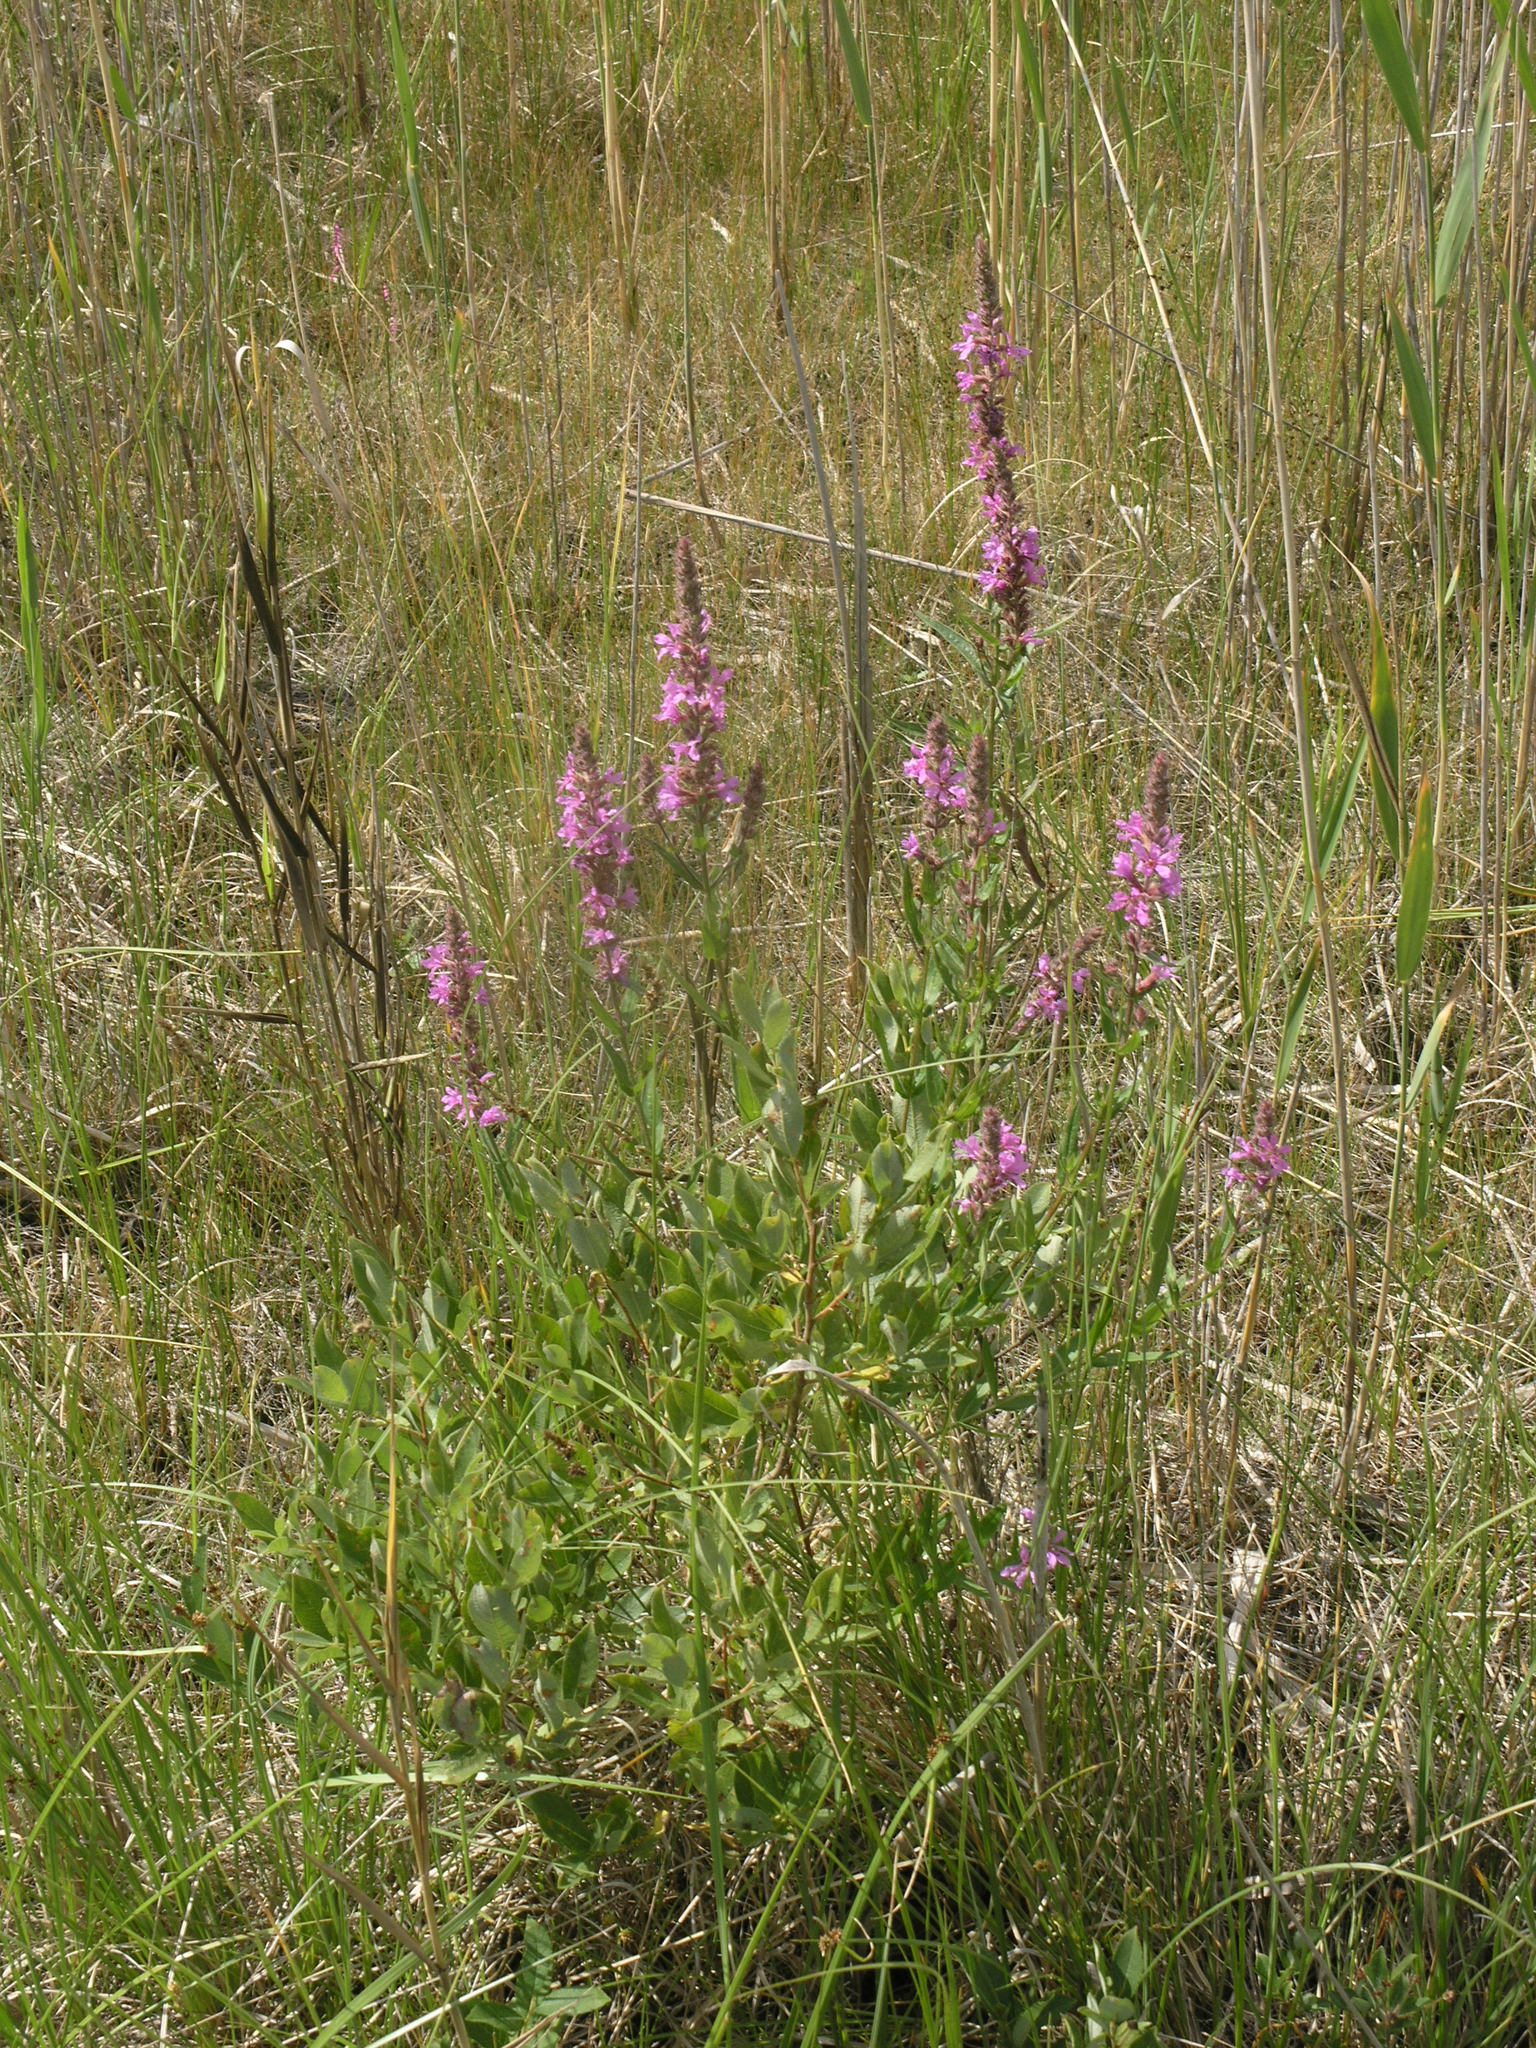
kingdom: Plantae
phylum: Tracheophyta
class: Magnoliopsida
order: Myrtales
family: Lythraceae
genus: Lythrum
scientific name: Lythrum salicaria
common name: Purple loosestrife
